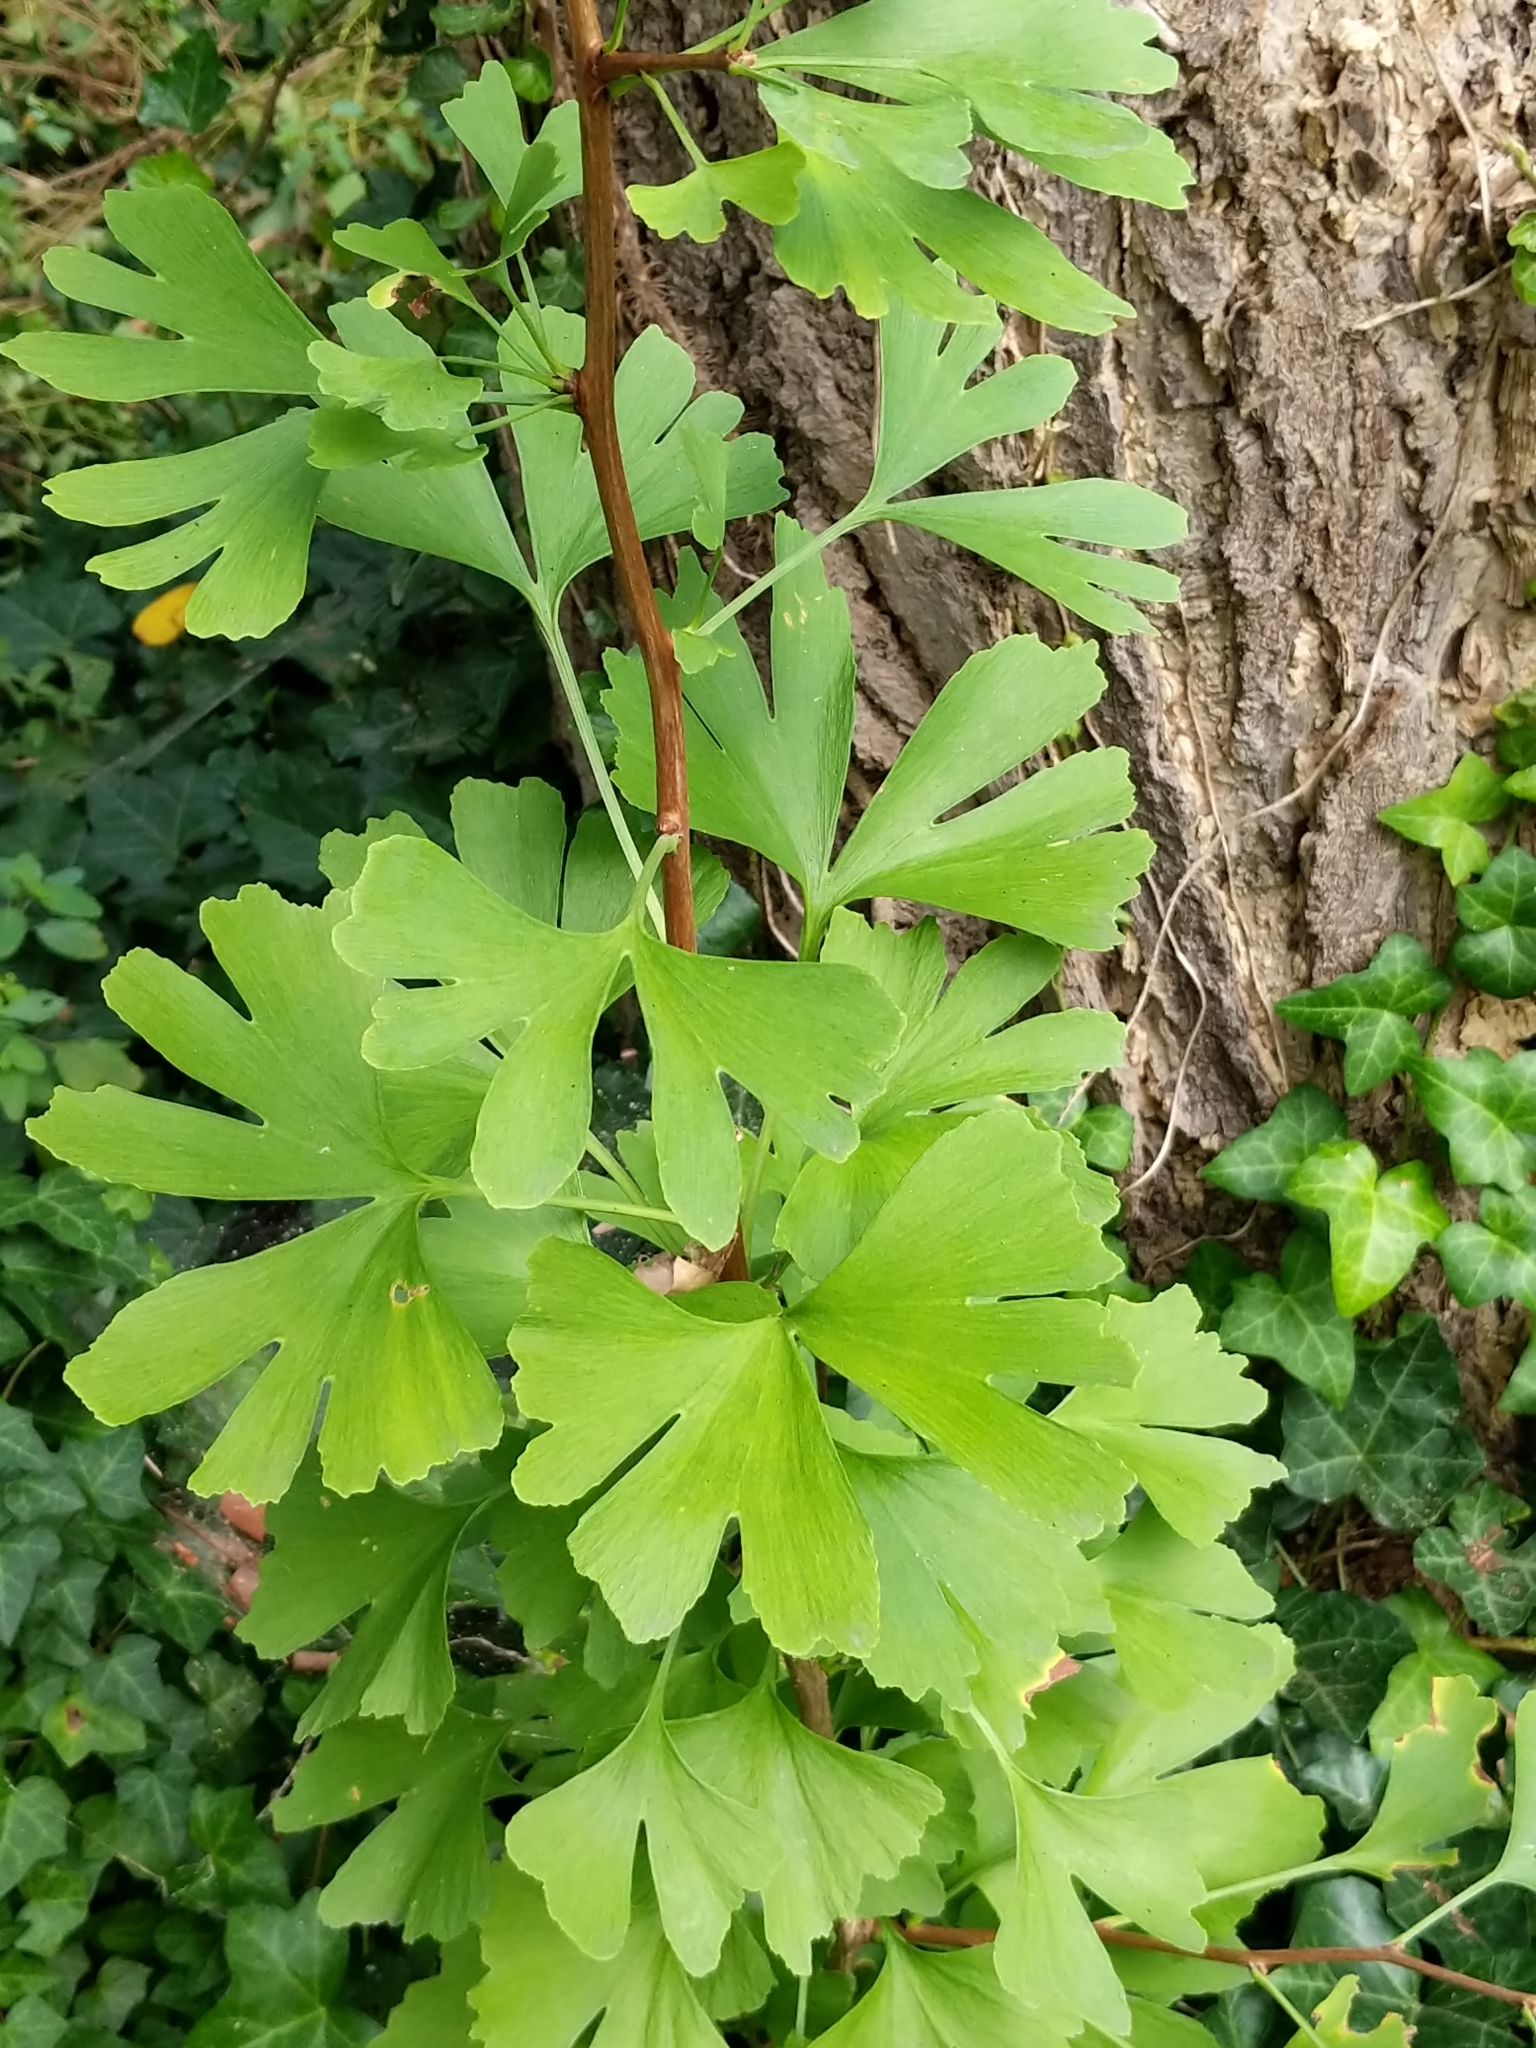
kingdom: Plantae
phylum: Tracheophyta
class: Ginkgoopsida
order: Ginkgoales
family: Ginkgoaceae
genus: Ginkgo
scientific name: Ginkgo biloba
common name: Ginkgo
